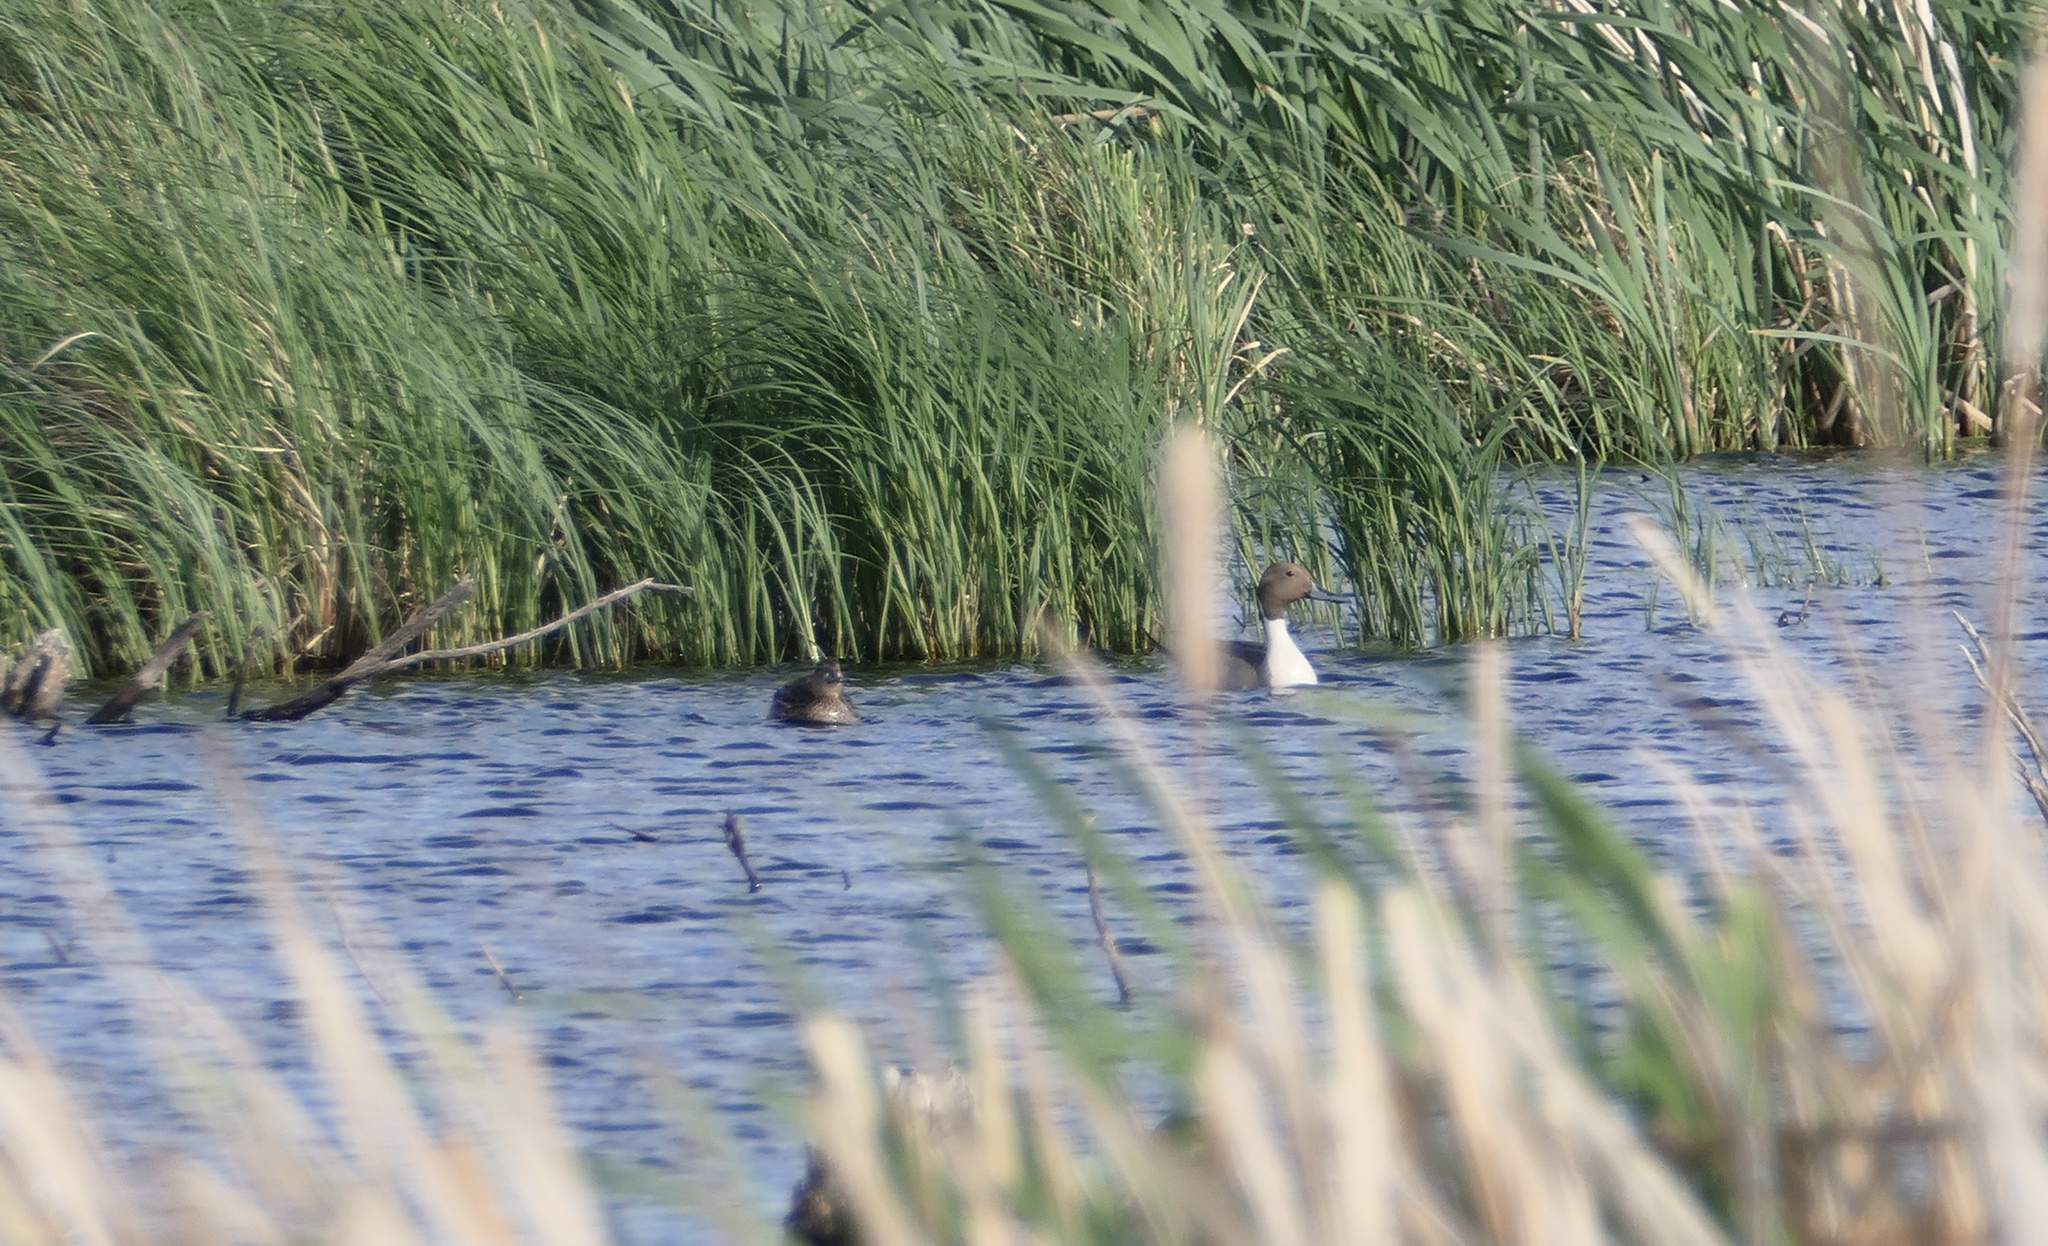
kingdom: Animalia
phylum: Chordata
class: Aves
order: Anseriformes
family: Anatidae
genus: Anas
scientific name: Anas acuta
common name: Northern pintail
